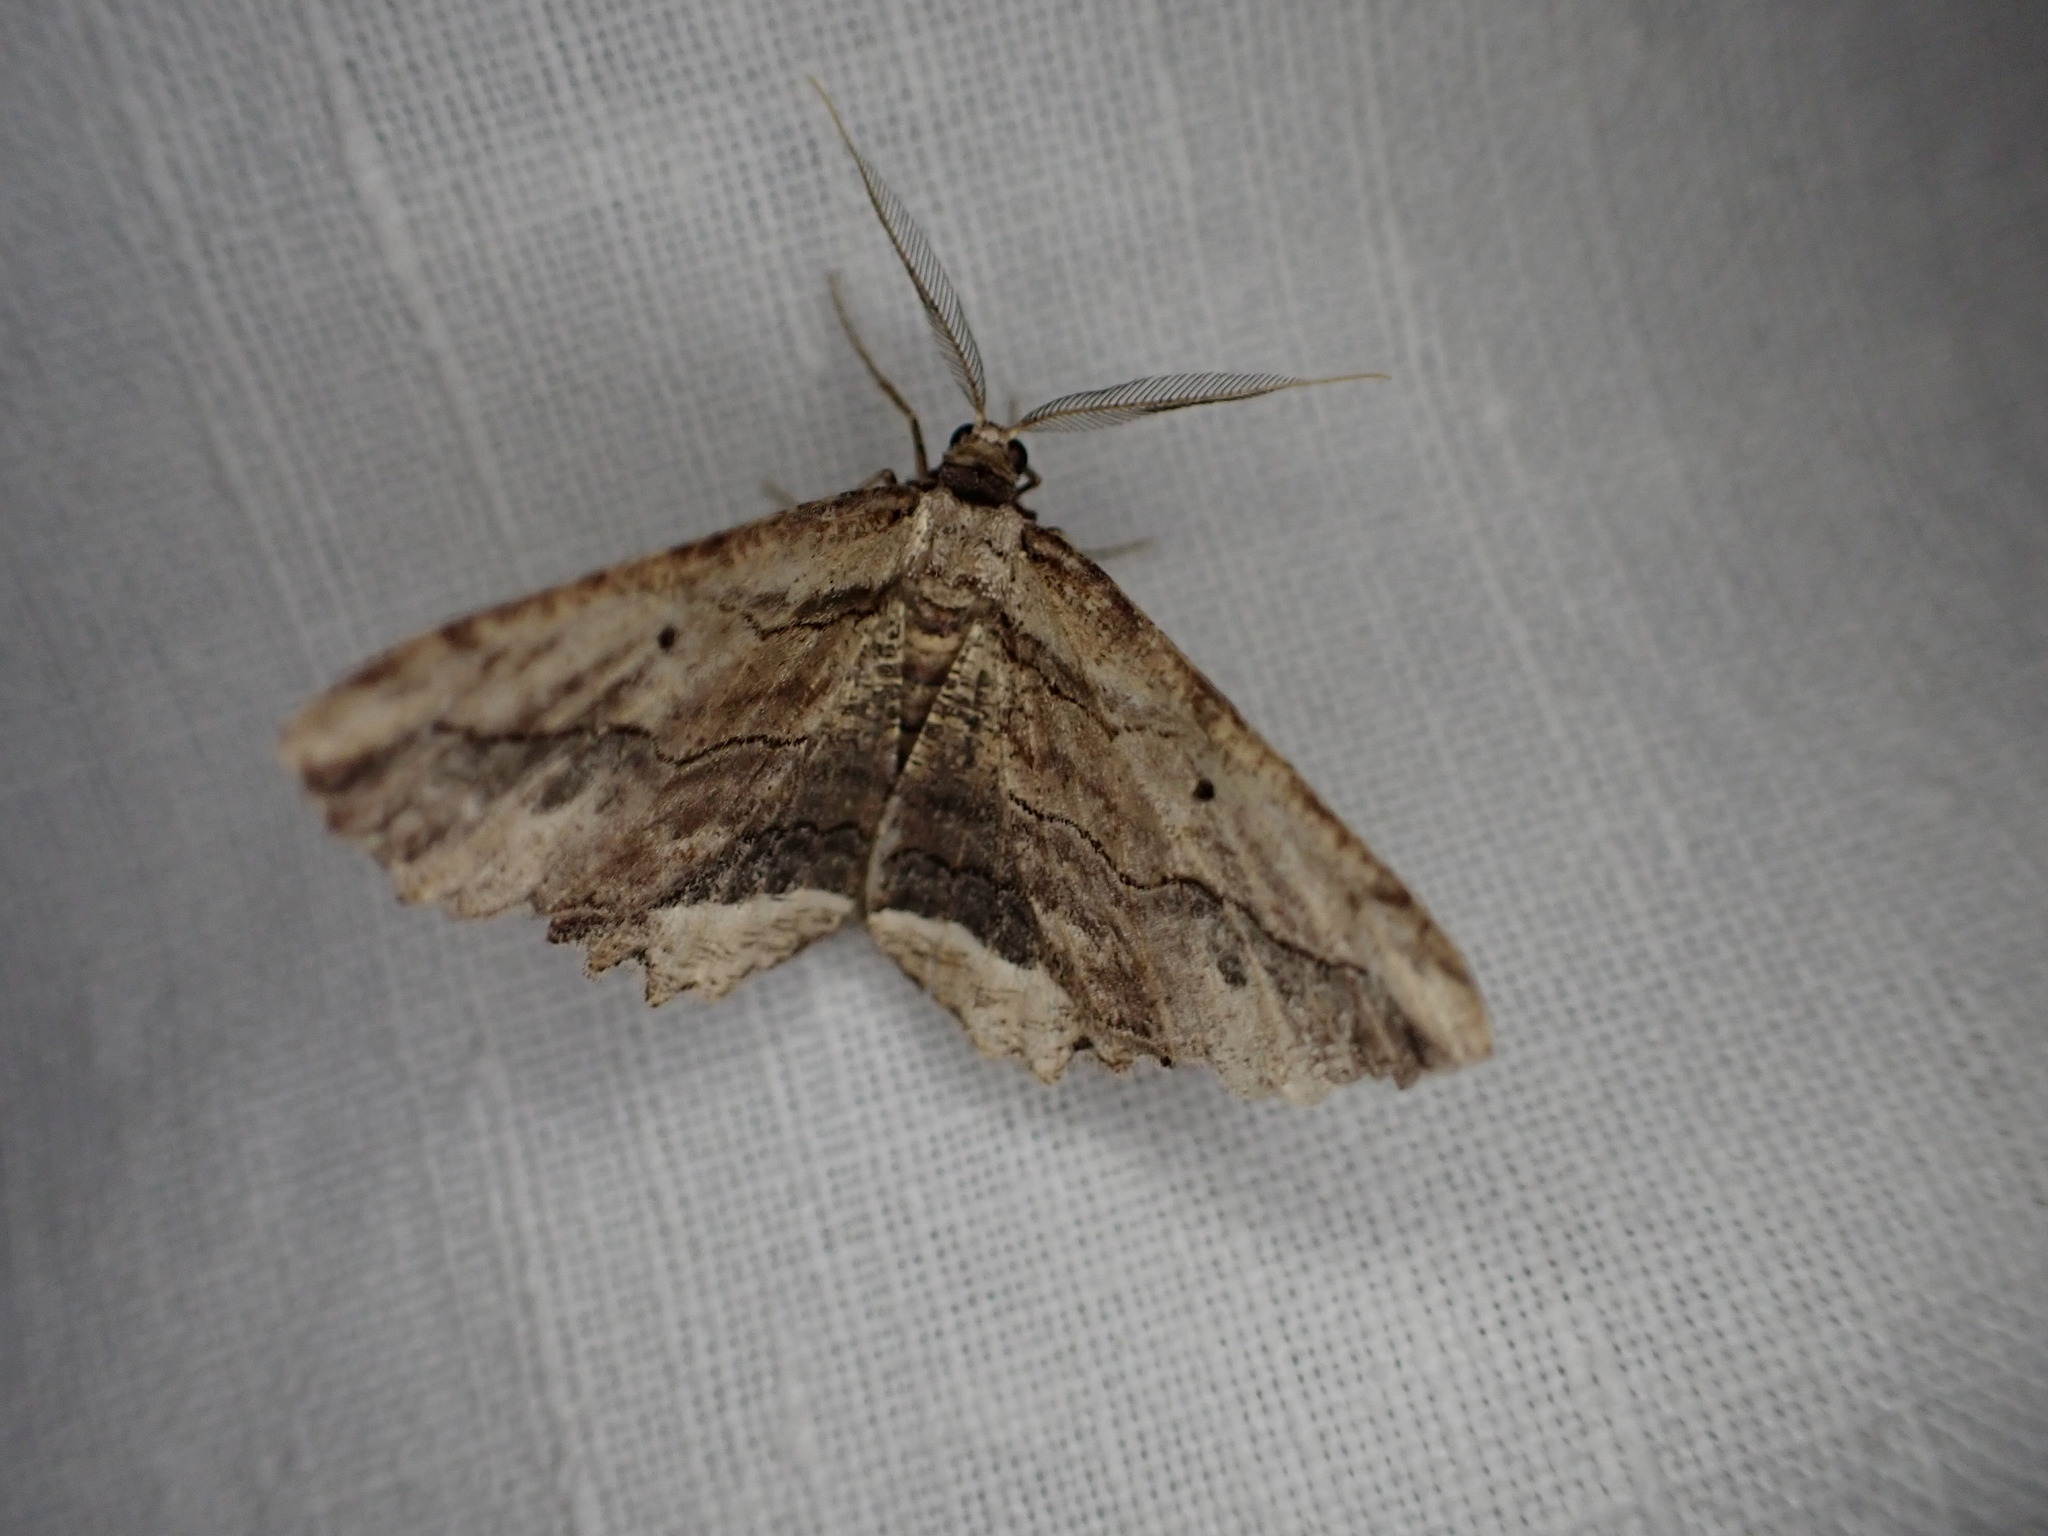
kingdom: Animalia
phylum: Arthropoda
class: Insecta
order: Lepidoptera
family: Geometridae
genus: Menophra
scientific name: Menophra abruptaria
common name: Waved umber
